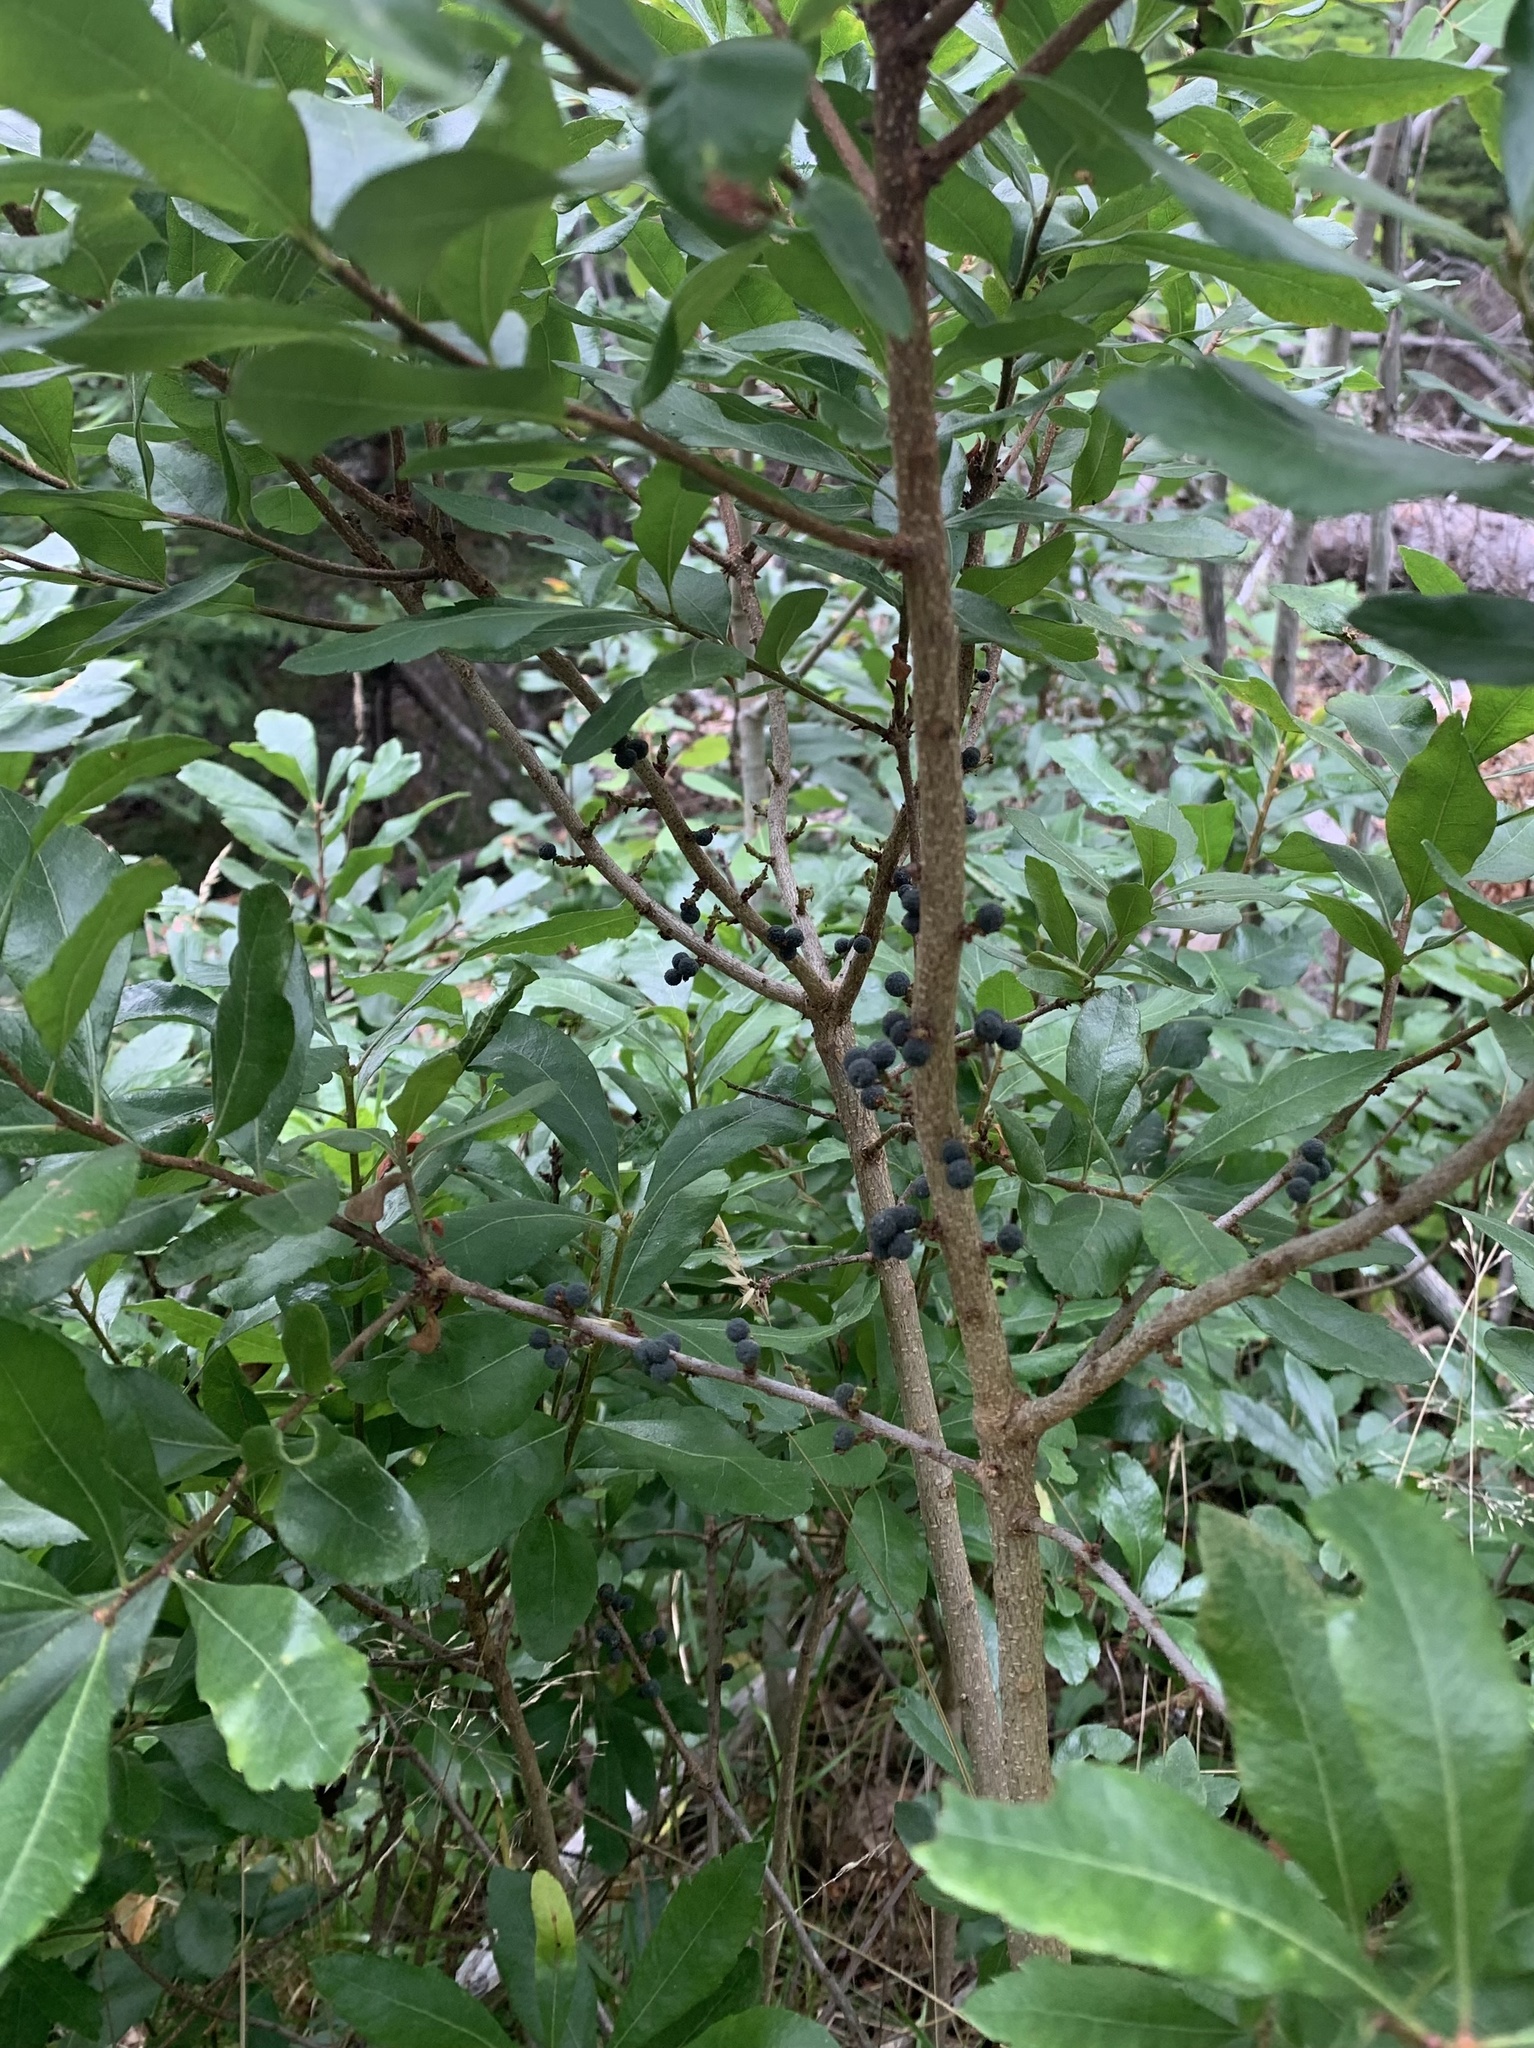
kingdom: Plantae
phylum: Tracheophyta
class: Magnoliopsida
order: Fagales
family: Myricaceae
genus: Morella
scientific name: Morella pensylvanica
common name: Northern bayberry
